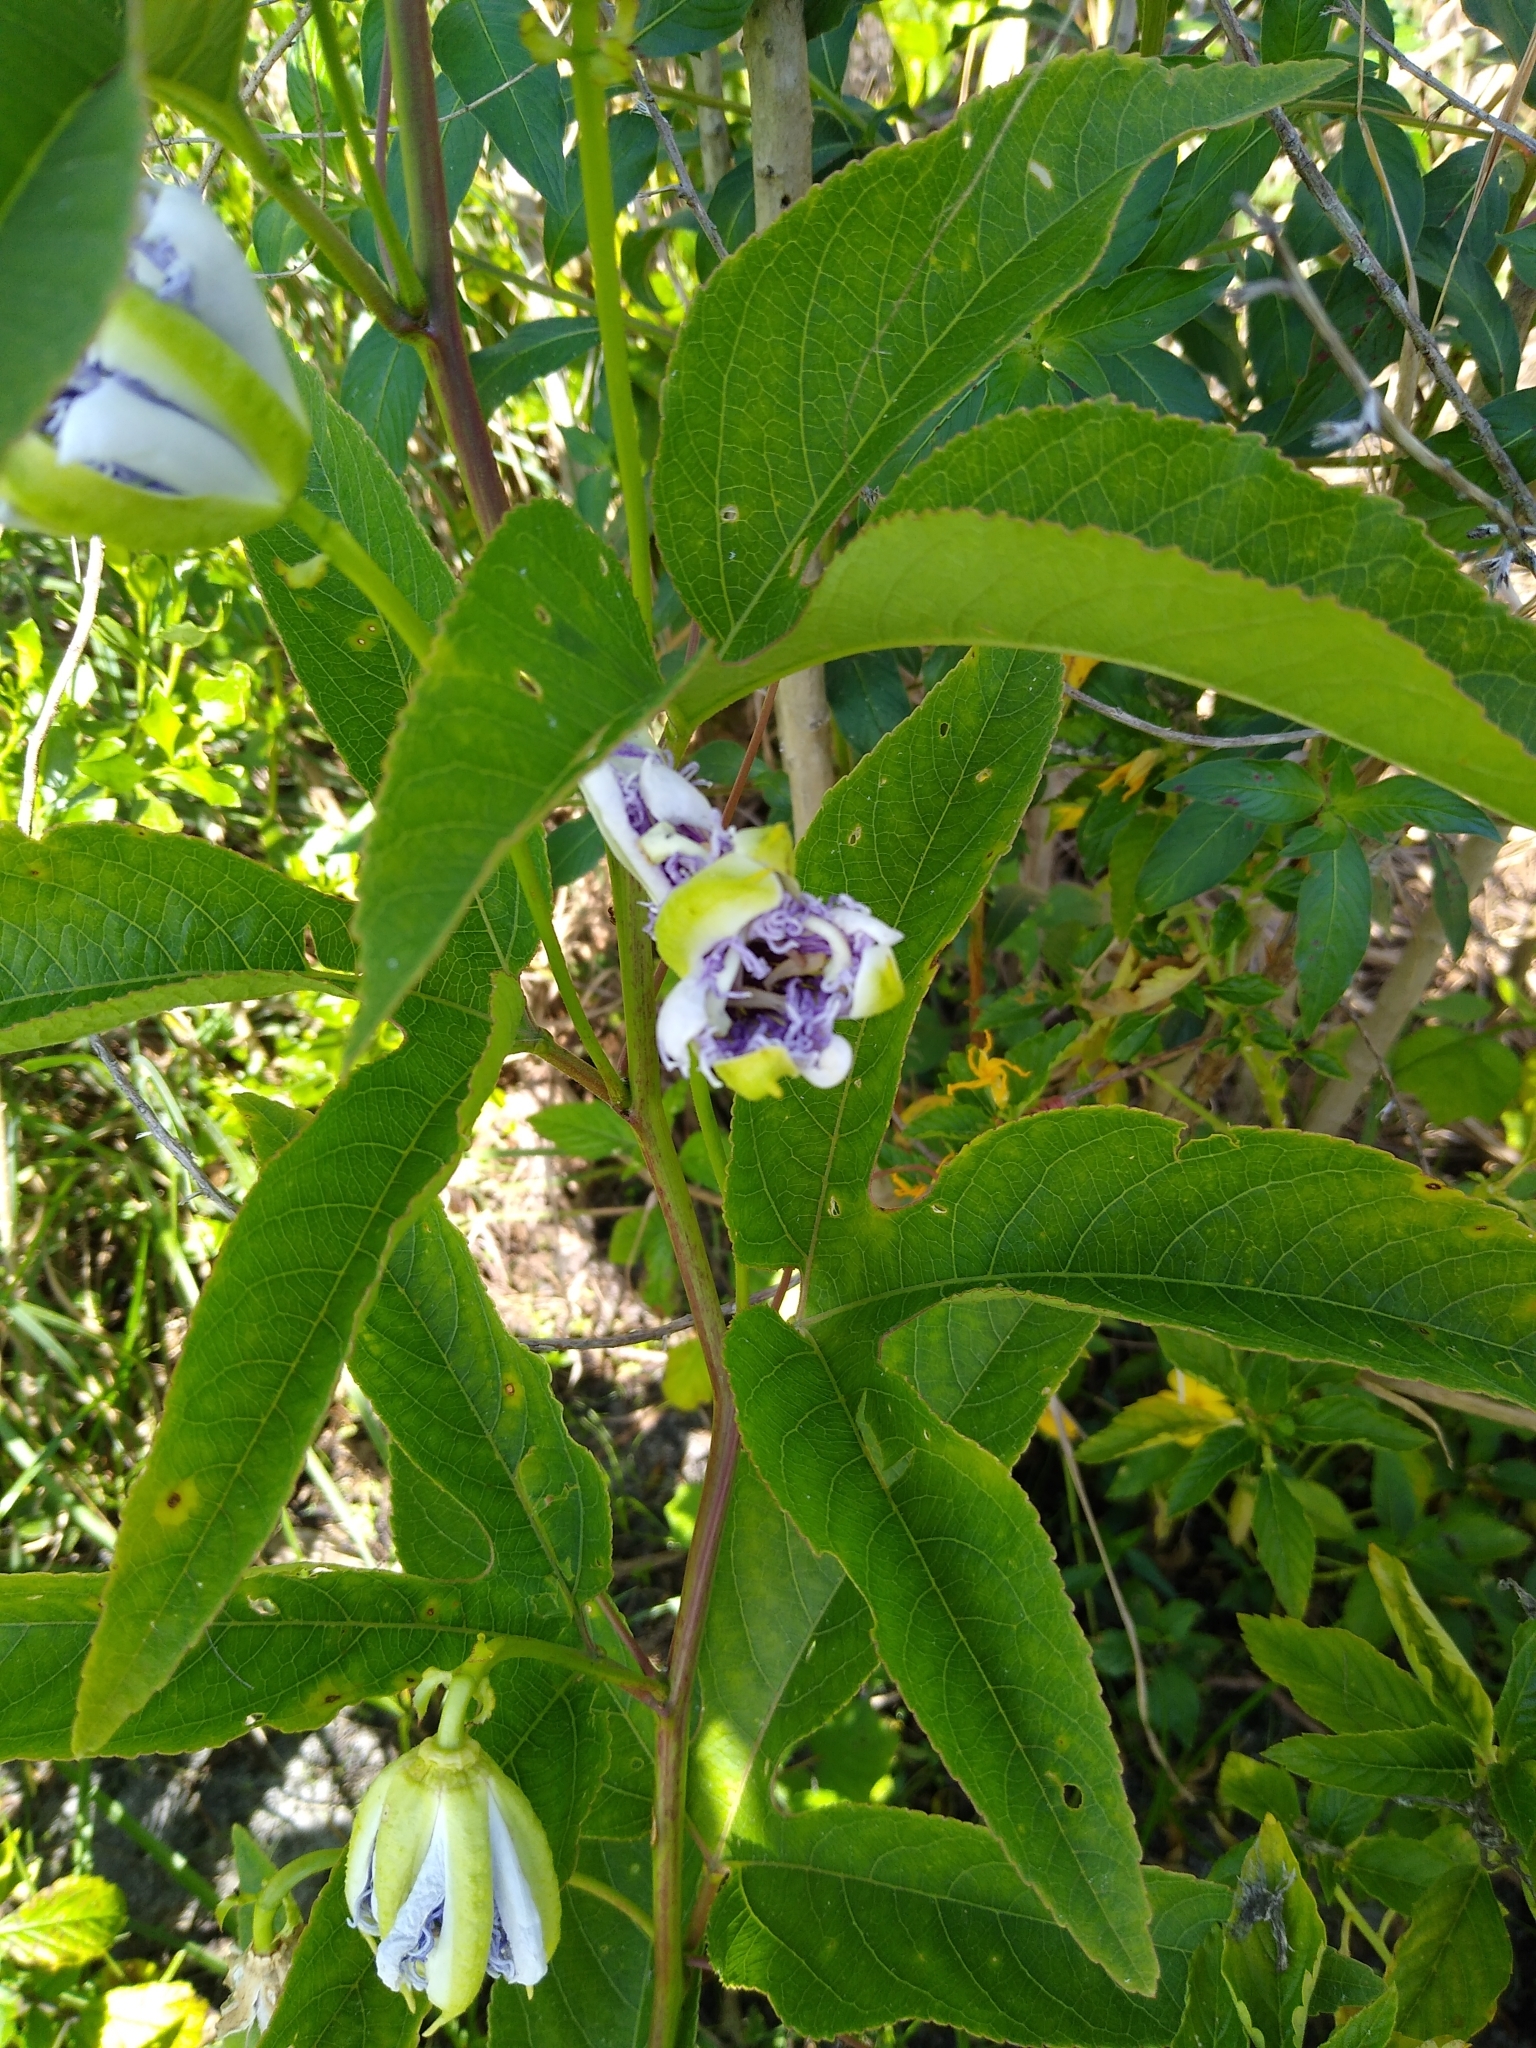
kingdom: Plantae
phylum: Tracheophyta
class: Magnoliopsida
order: Malpighiales
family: Passifloraceae
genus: Passiflora
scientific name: Passiflora incarnata
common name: Apricot-vine
